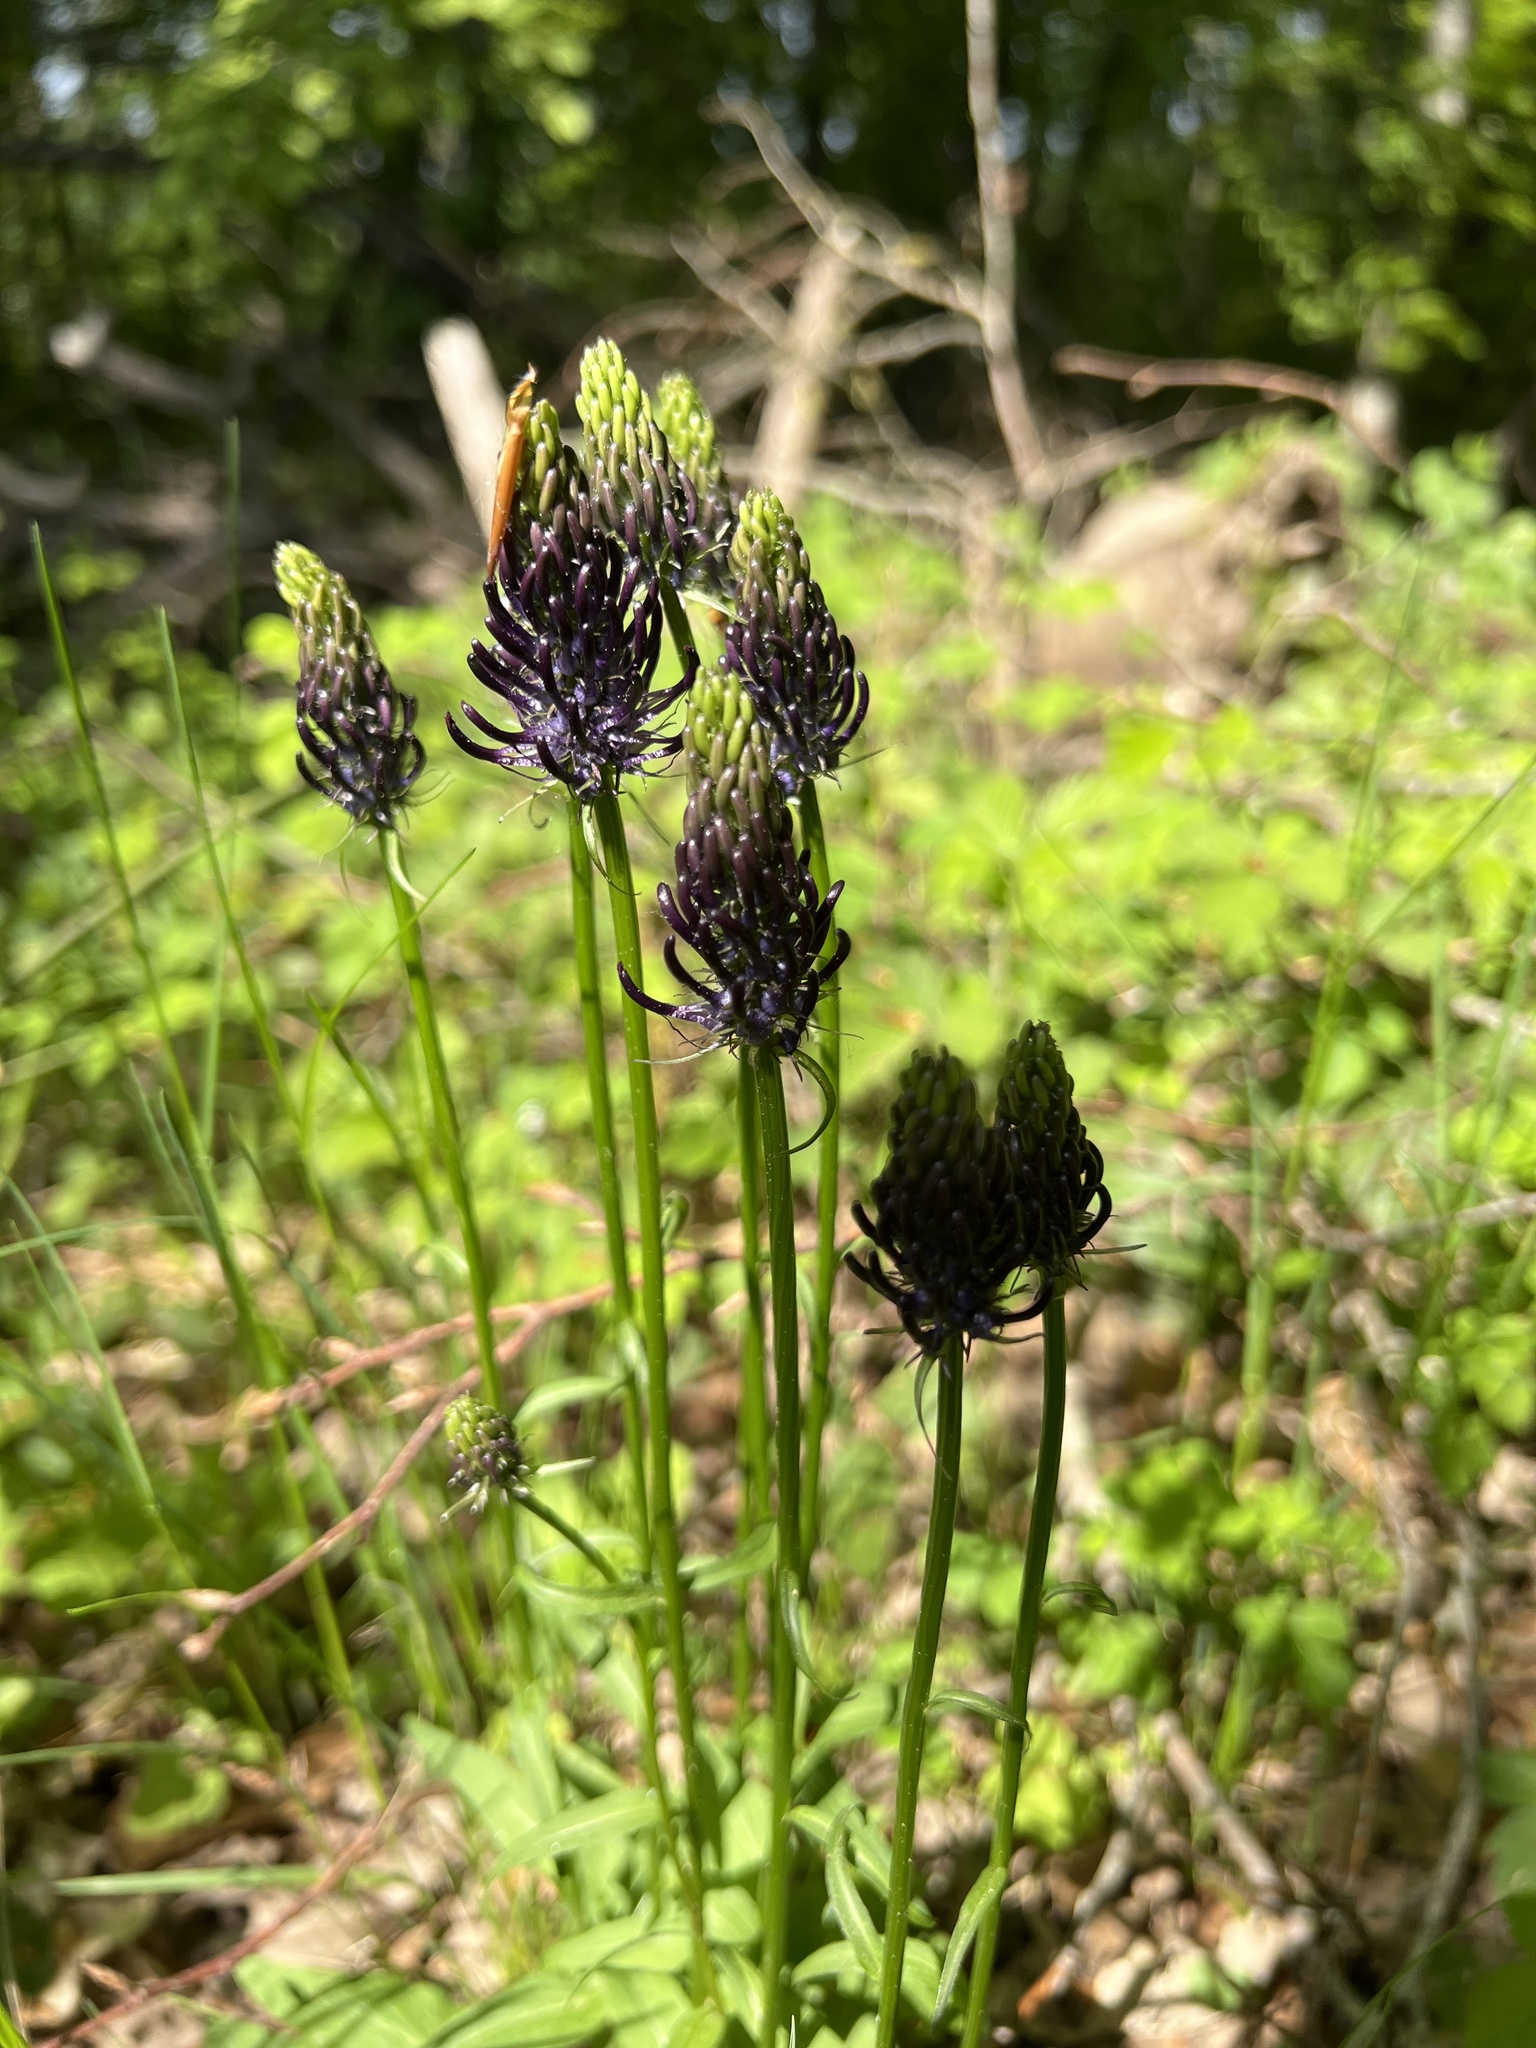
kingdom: Plantae
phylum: Tracheophyta
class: Magnoliopsida
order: Asterales
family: Campanulaceae
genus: Phyteuma
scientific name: Phyteuma nigrum
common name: Black rampion
